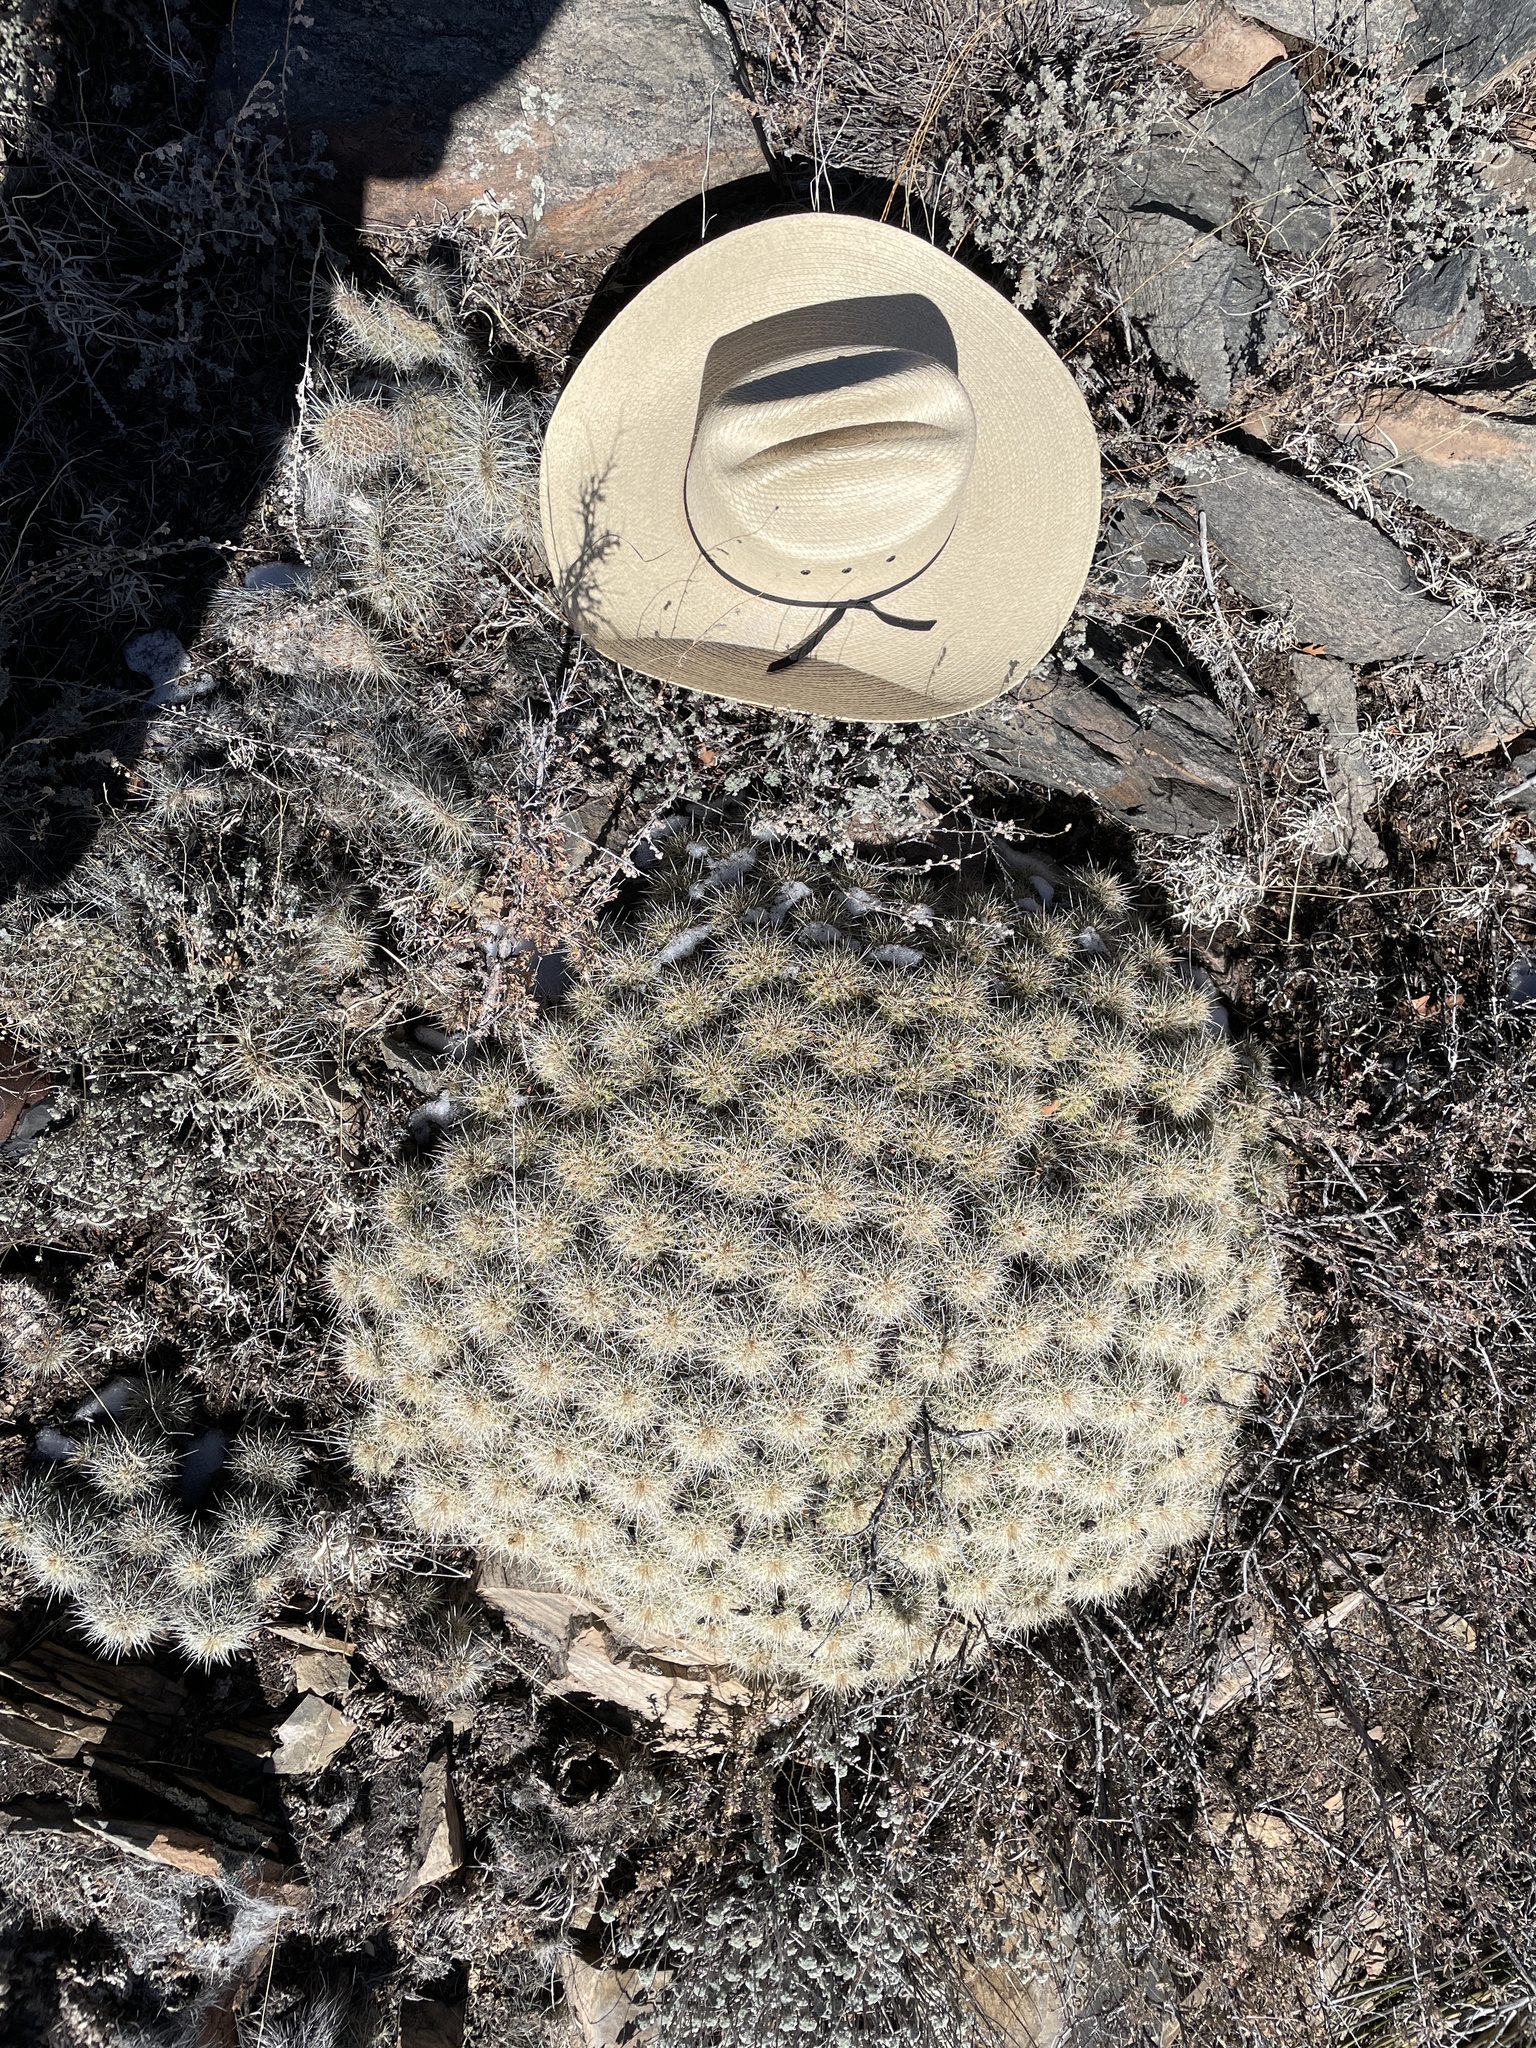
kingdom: Plantae
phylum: Tracheophyta
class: Magnoliopsida
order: Caryophyllales
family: Cactaceae
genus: Echinocereus
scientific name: Echinocereus coccineus
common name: Scarlet hedgehog cactus
